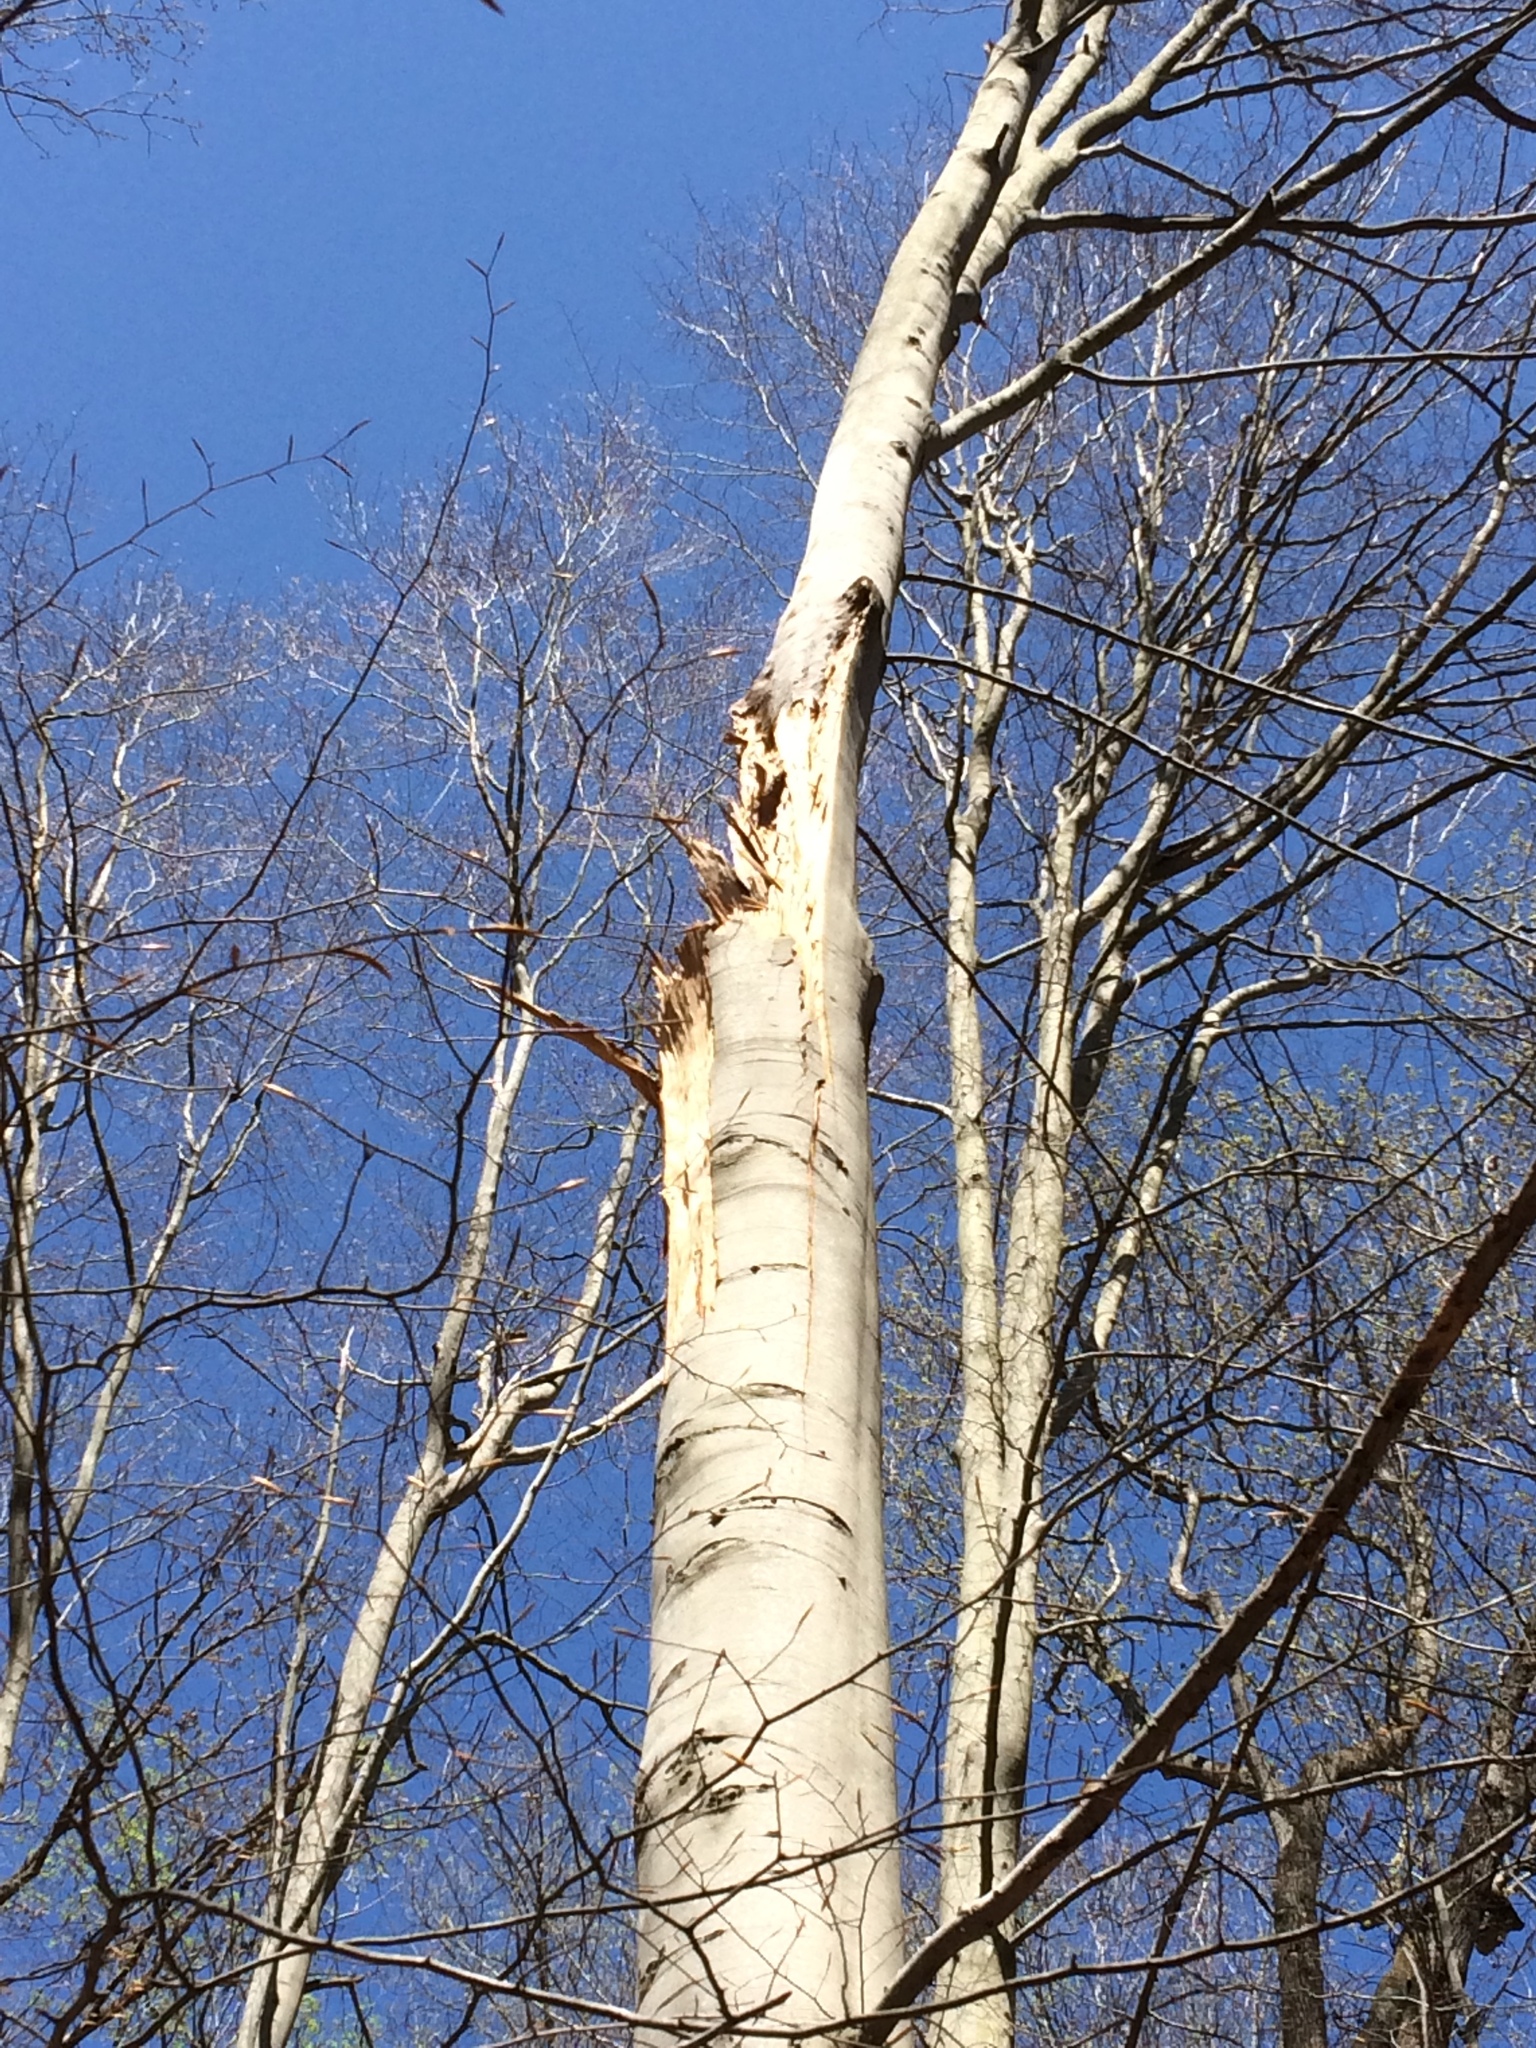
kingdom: Plantae
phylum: Tracheophyta
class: Magnoliopsida
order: Fagales
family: Fagaceae
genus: Fagus
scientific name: Fagus grandifolia
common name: American beech
